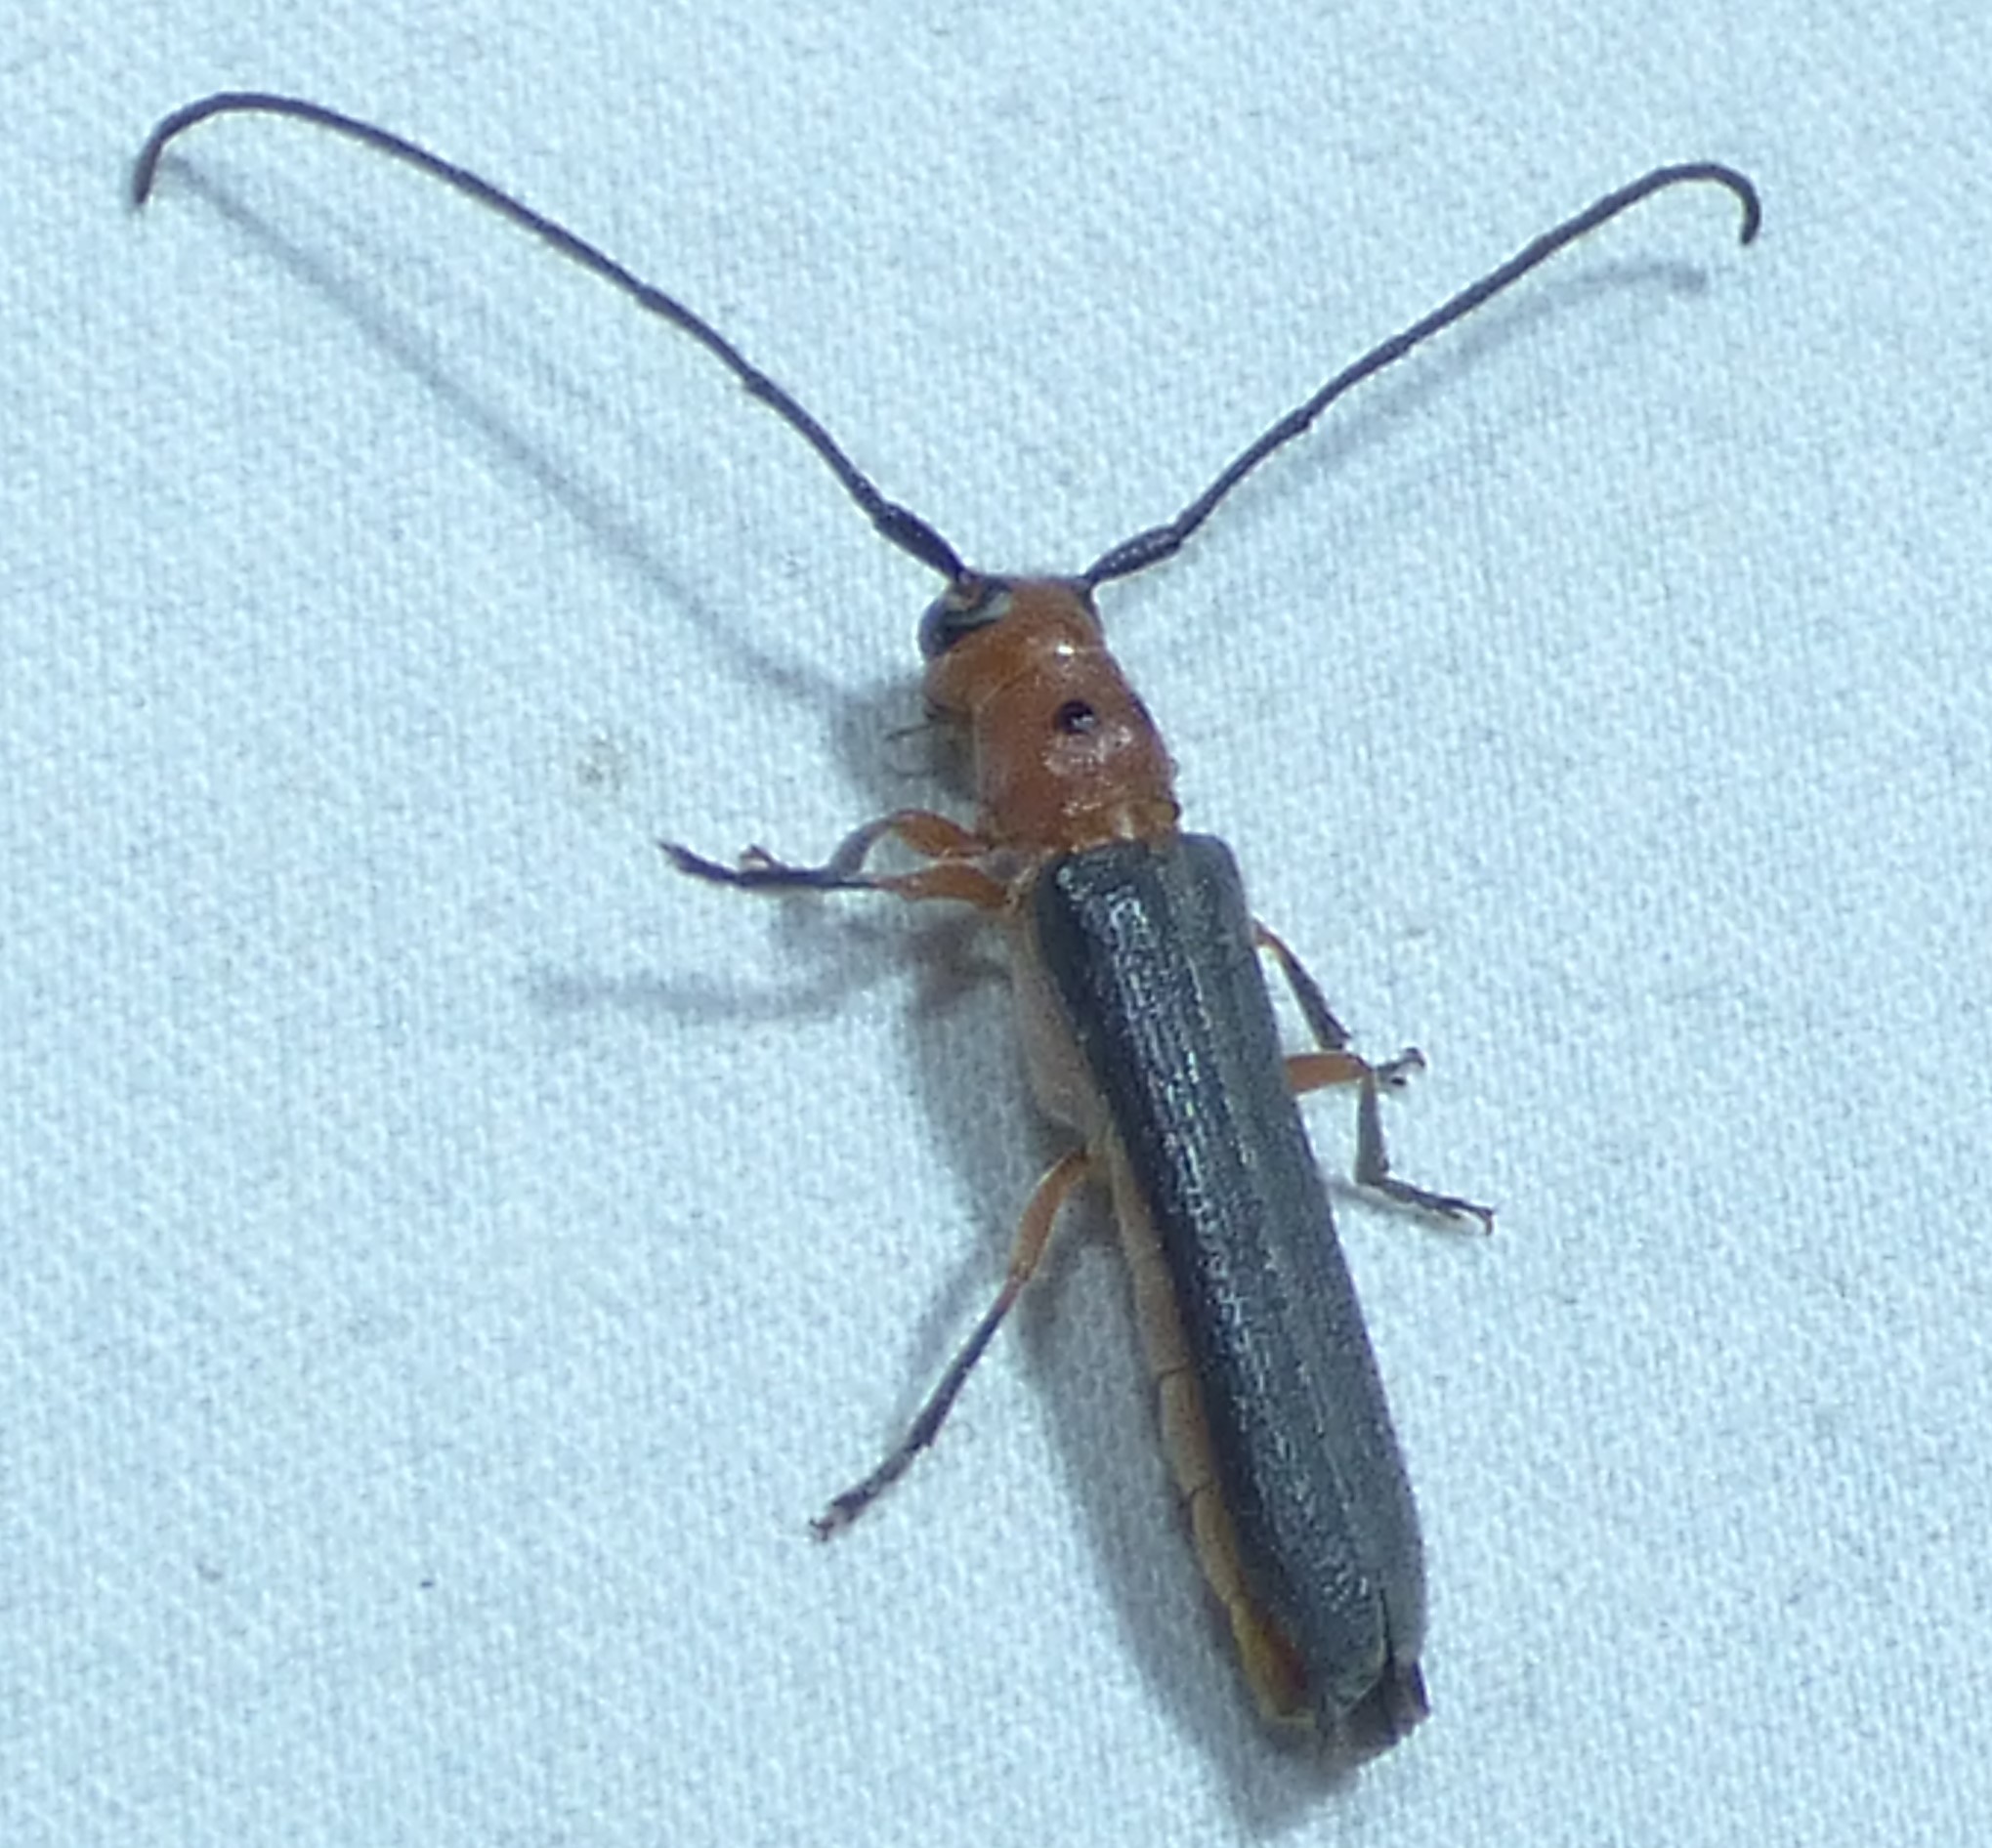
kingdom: Animalia
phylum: Arthropoda
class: Insecta
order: Coleoptera
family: Cerambycidae
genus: Oberea
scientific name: Oberea ocellata
